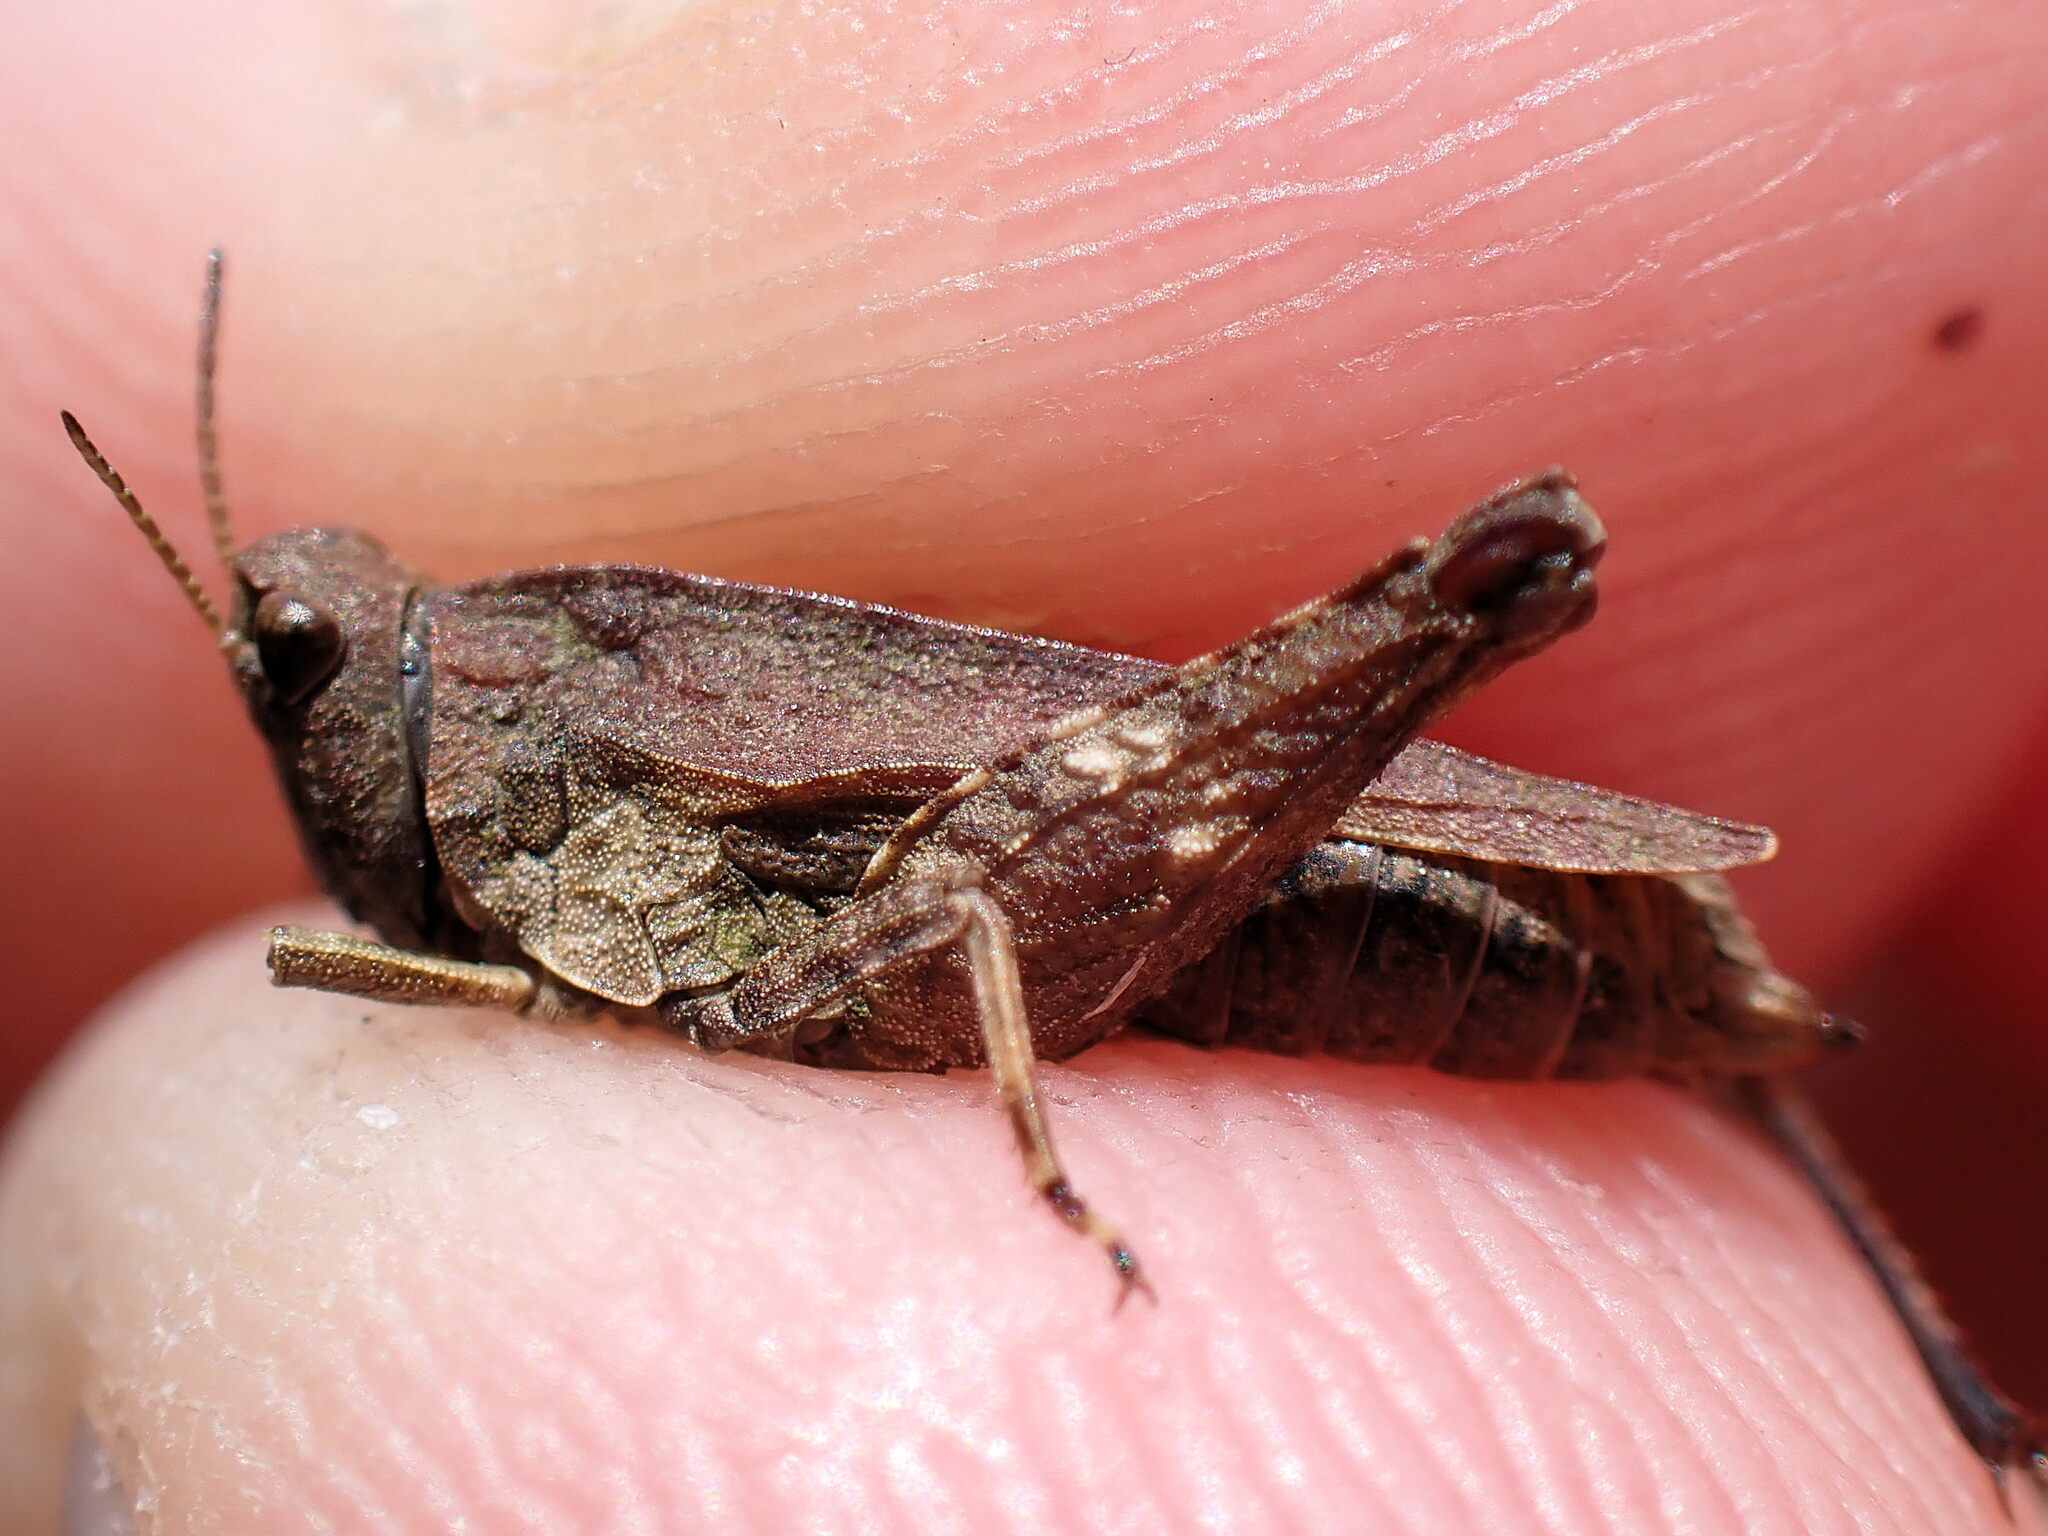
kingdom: Animalia
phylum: Arthropoda
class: Insecta
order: Orthoptera
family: Tetrigidae
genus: Tetrix
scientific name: Tetrix undulata
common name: Common groundhopper
